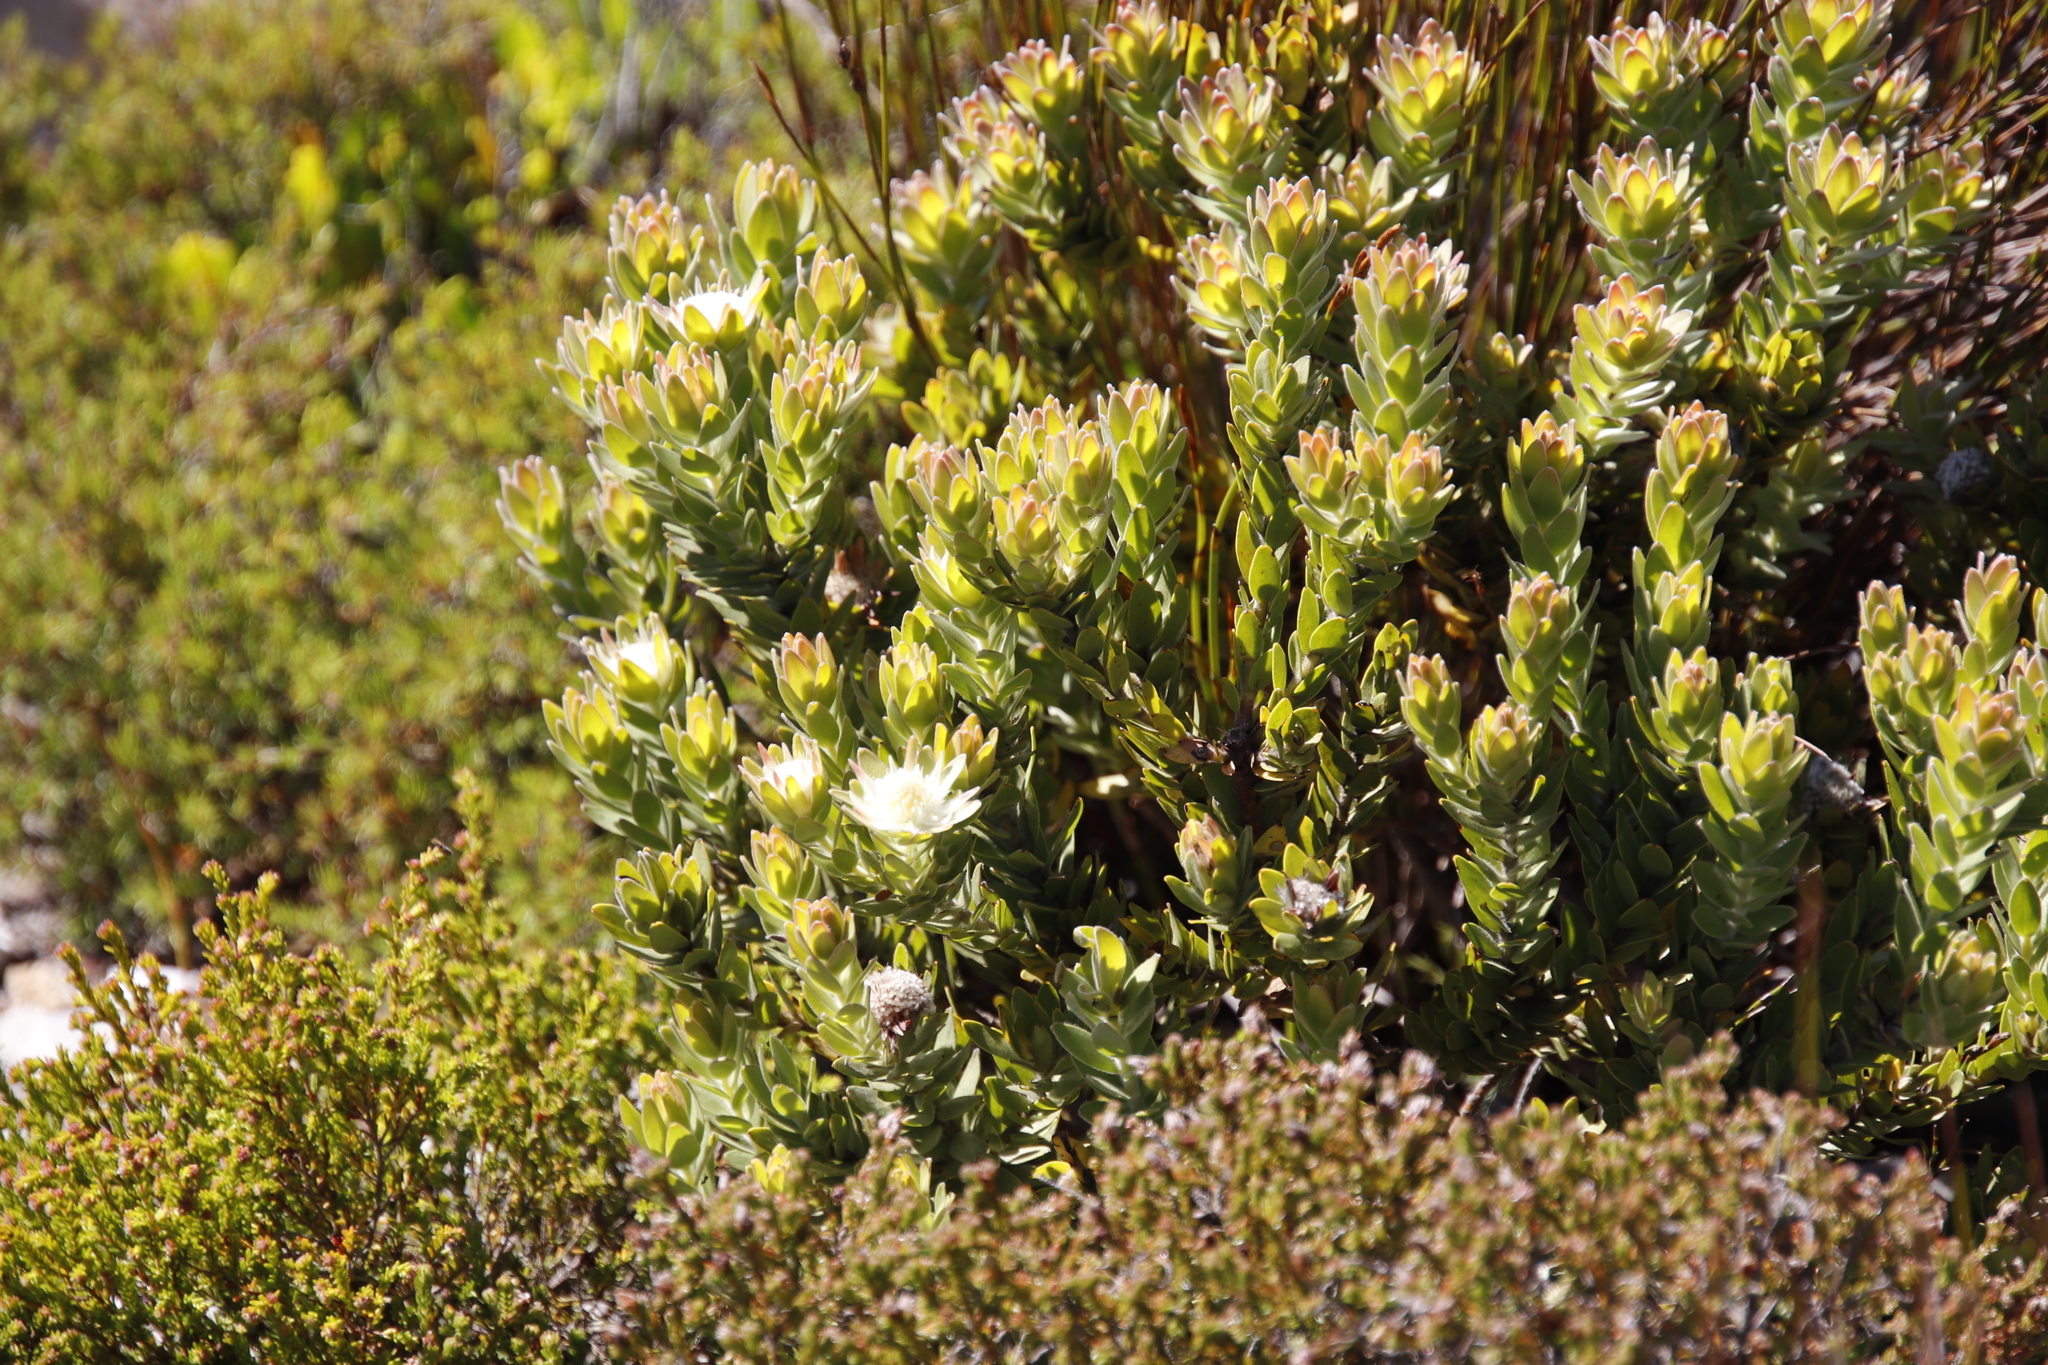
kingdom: Plantae
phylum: Tracheophyta
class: Magnoliopsida
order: Proteales
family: Proteaceae
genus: Diastella
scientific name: Diastella thymelaeoides
